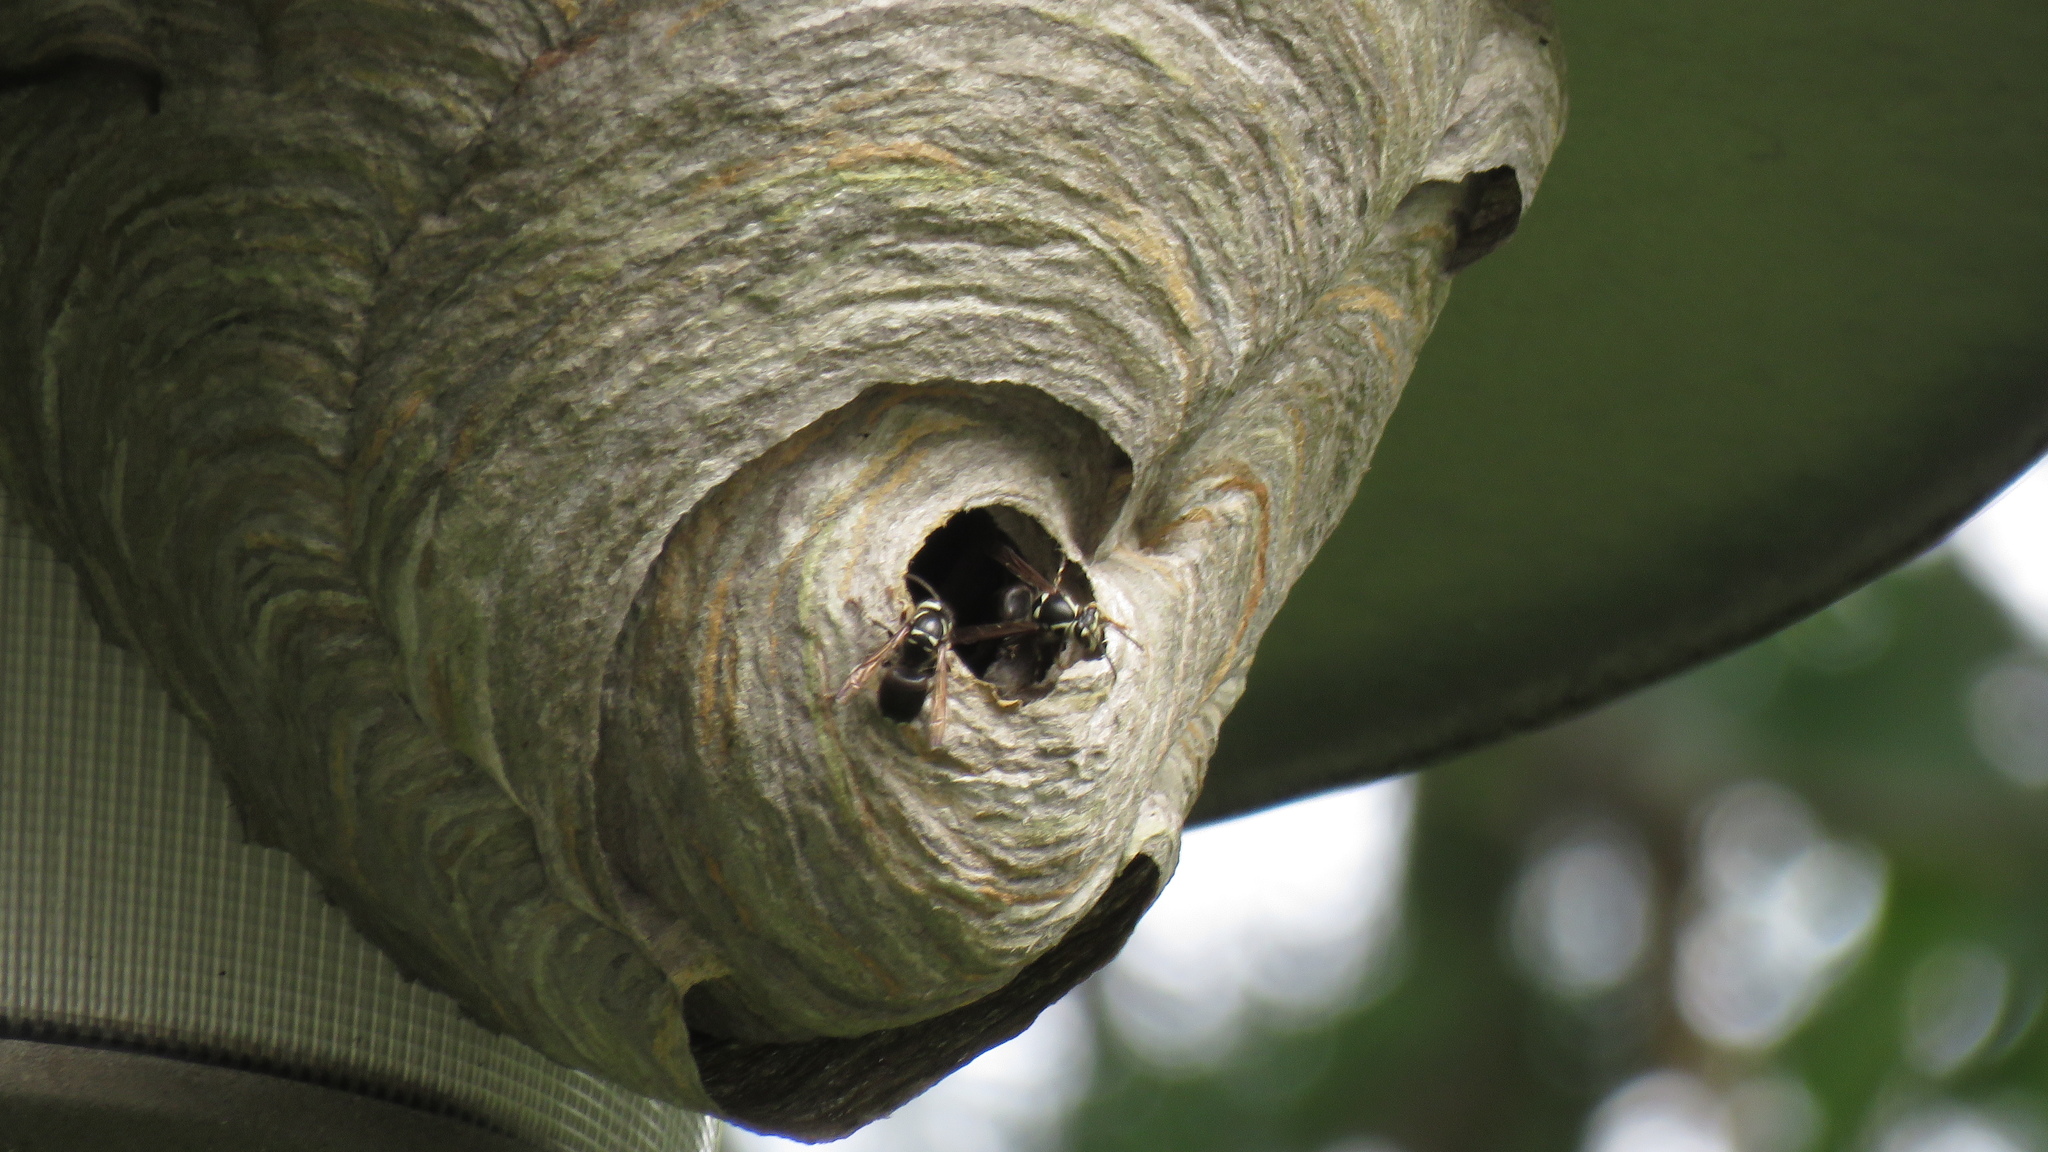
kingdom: Animalia
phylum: Arthropoda
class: Insecta
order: Hymenoptera
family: Vespidae
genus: Dolichovespula
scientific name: Dolichovespula maculata
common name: Bald-faced hornet
